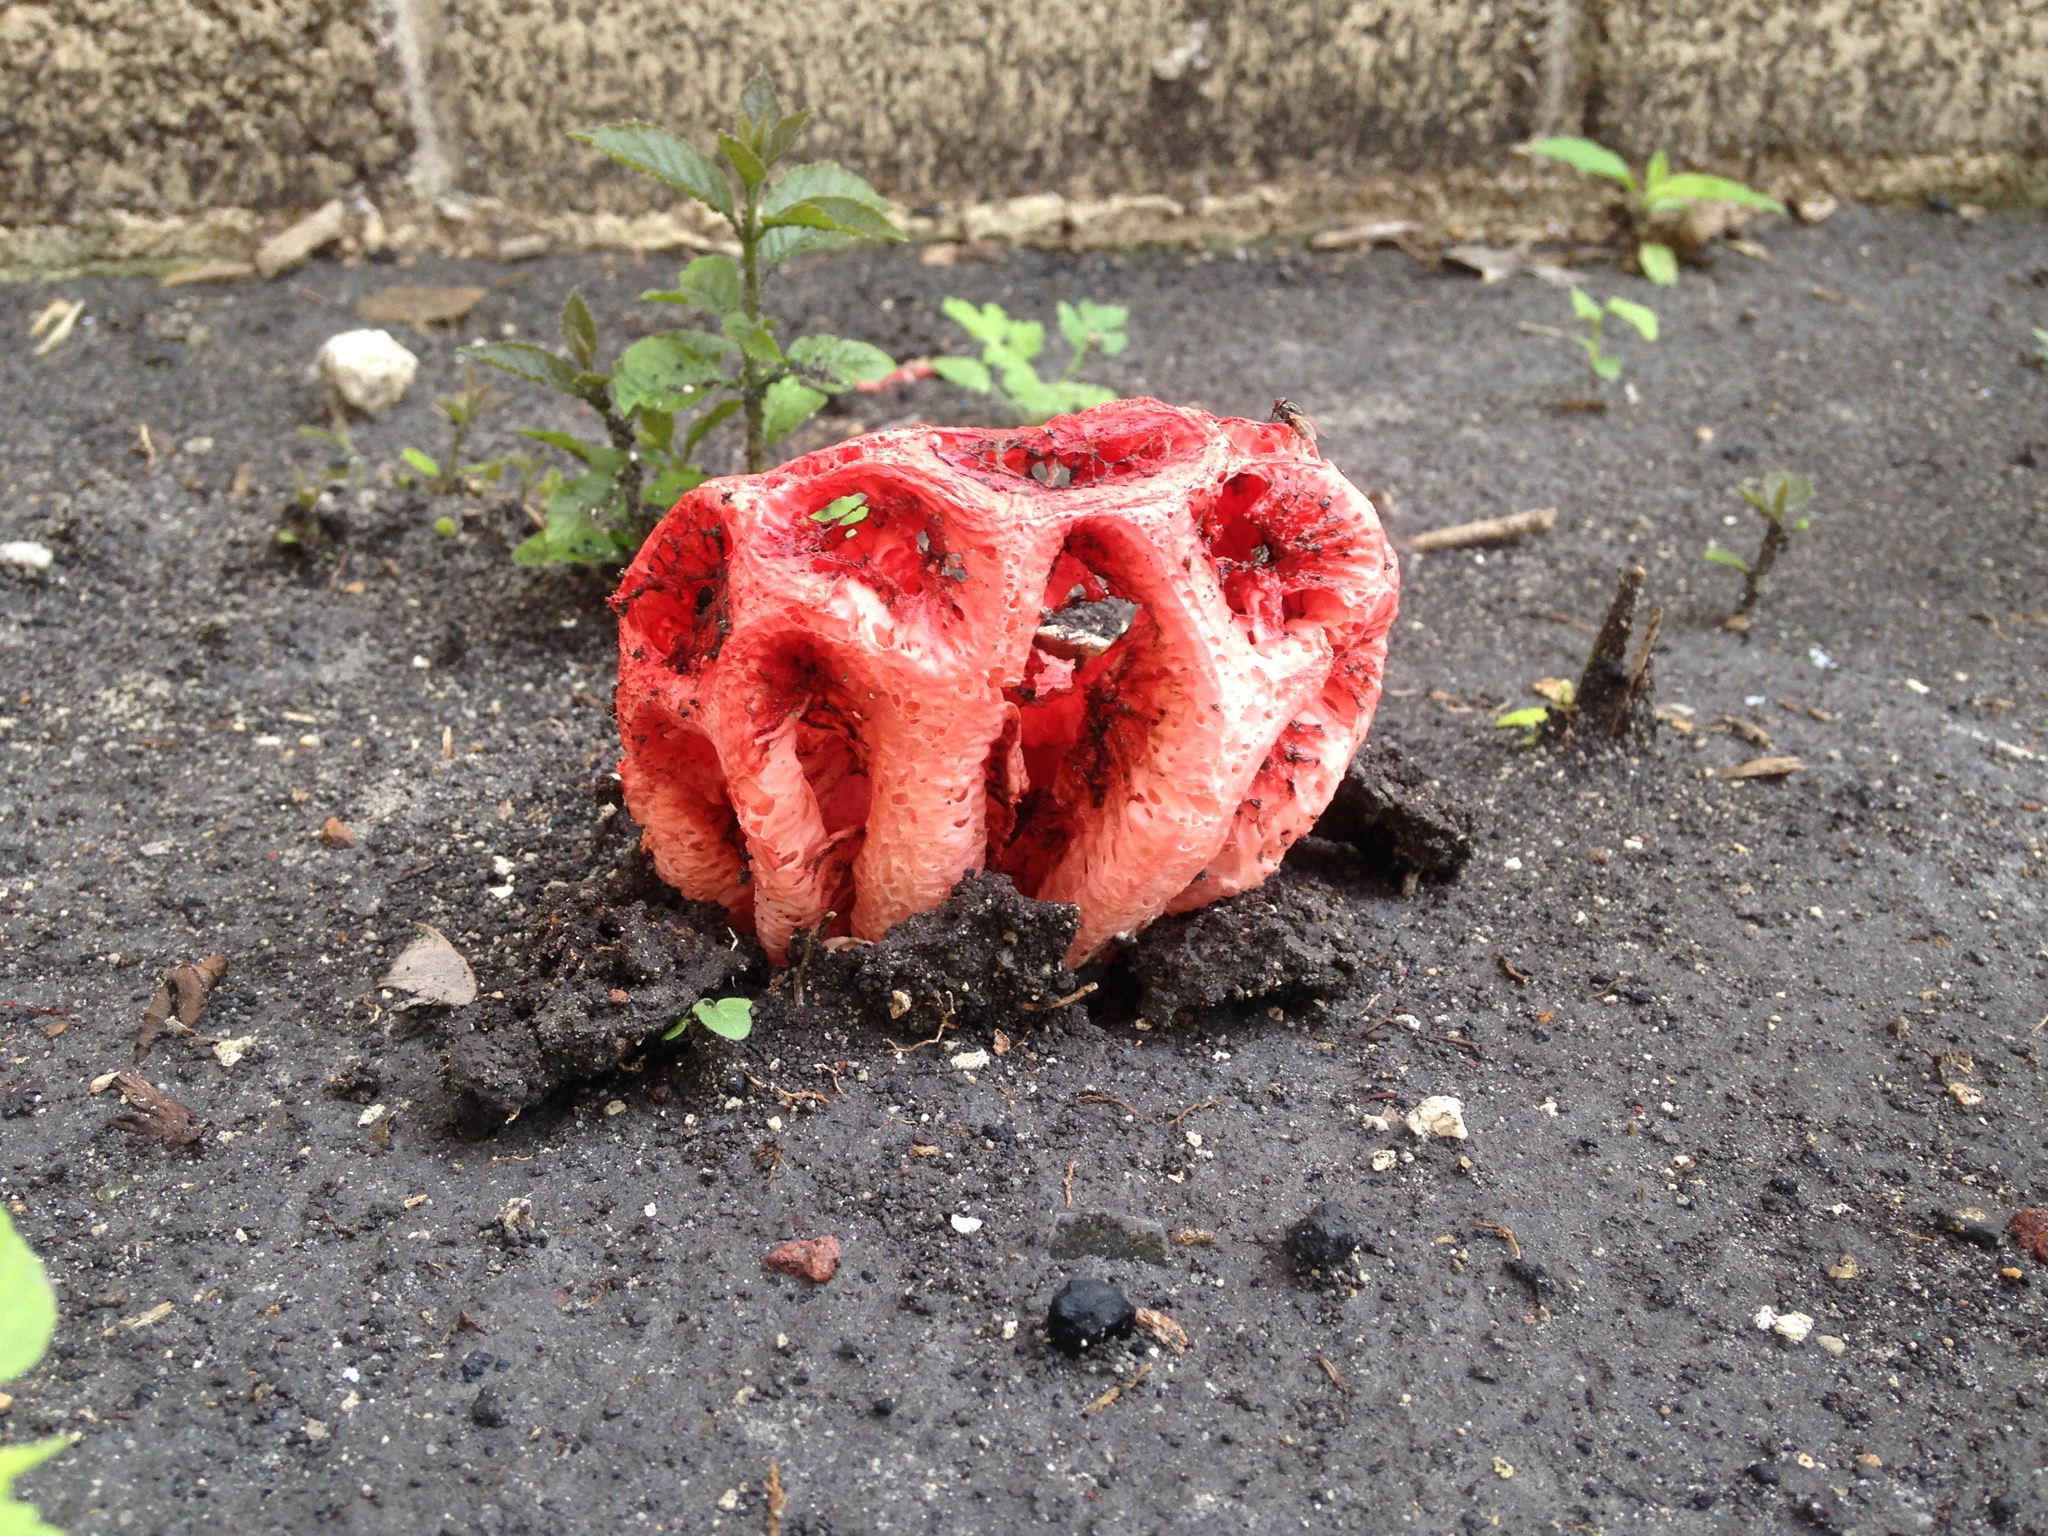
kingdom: Fungi
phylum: Basidiomycota
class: Agaricomycetes
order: Phallales
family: Phallaceae
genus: Clathrus
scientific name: Clathrus crispatus
